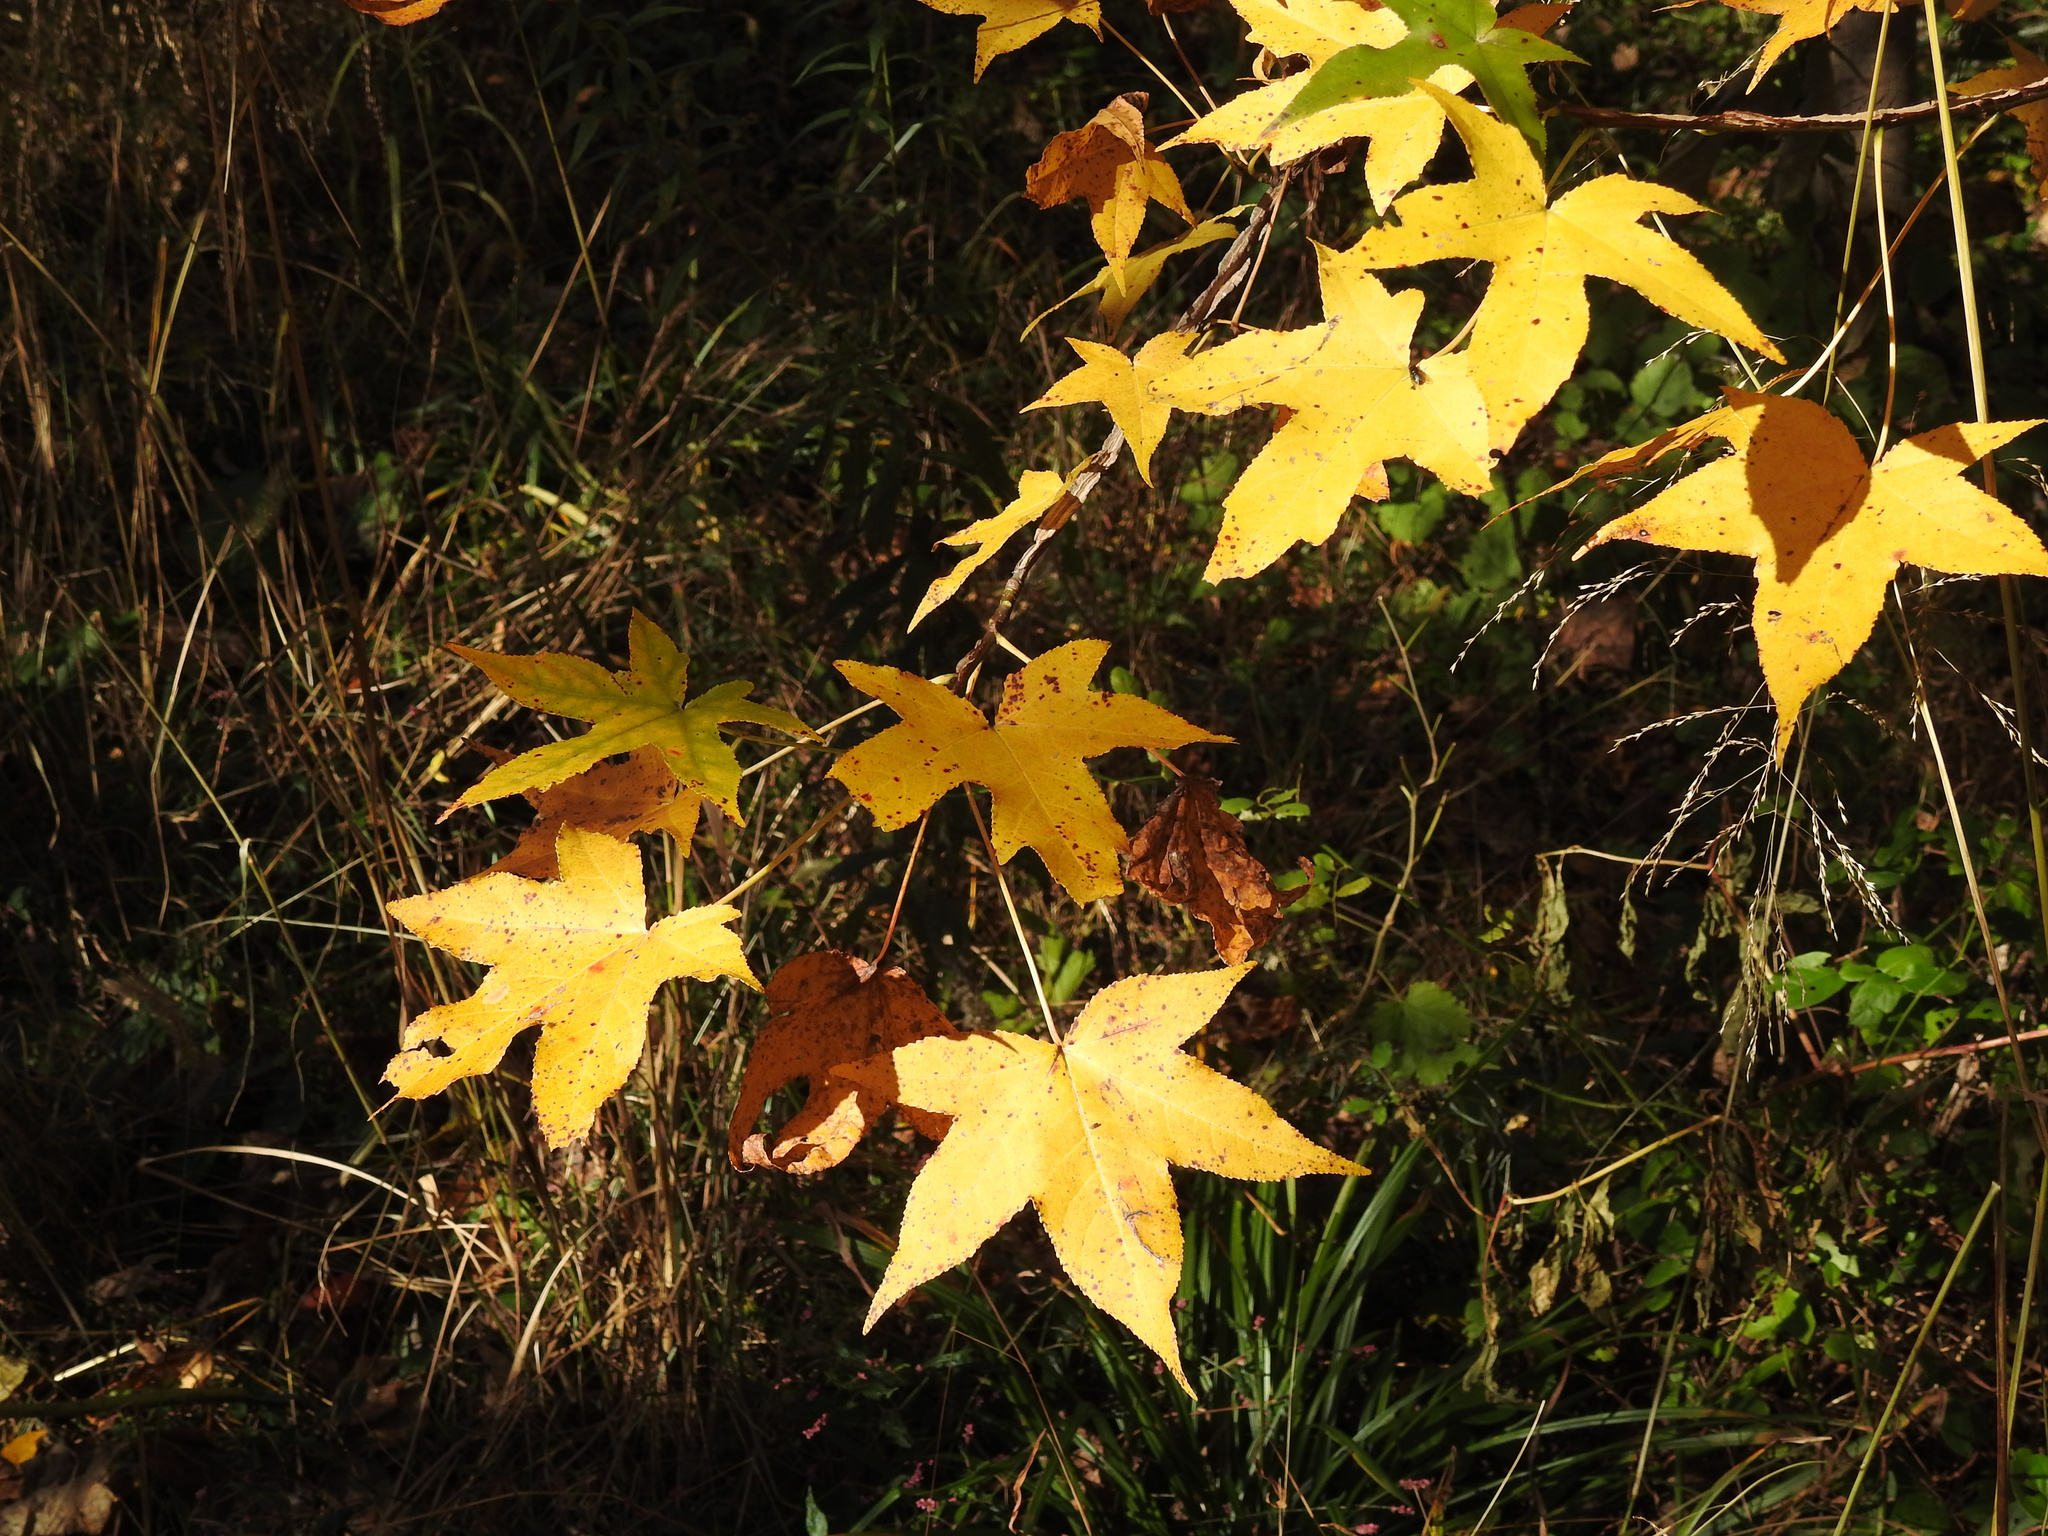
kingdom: Plantae
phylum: Tracheophyta
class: Magnoliopsida
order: Saxifragales
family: Altingiaceae
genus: Liquidambar
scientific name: Liquidambar styraciflua
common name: Sweet gum
